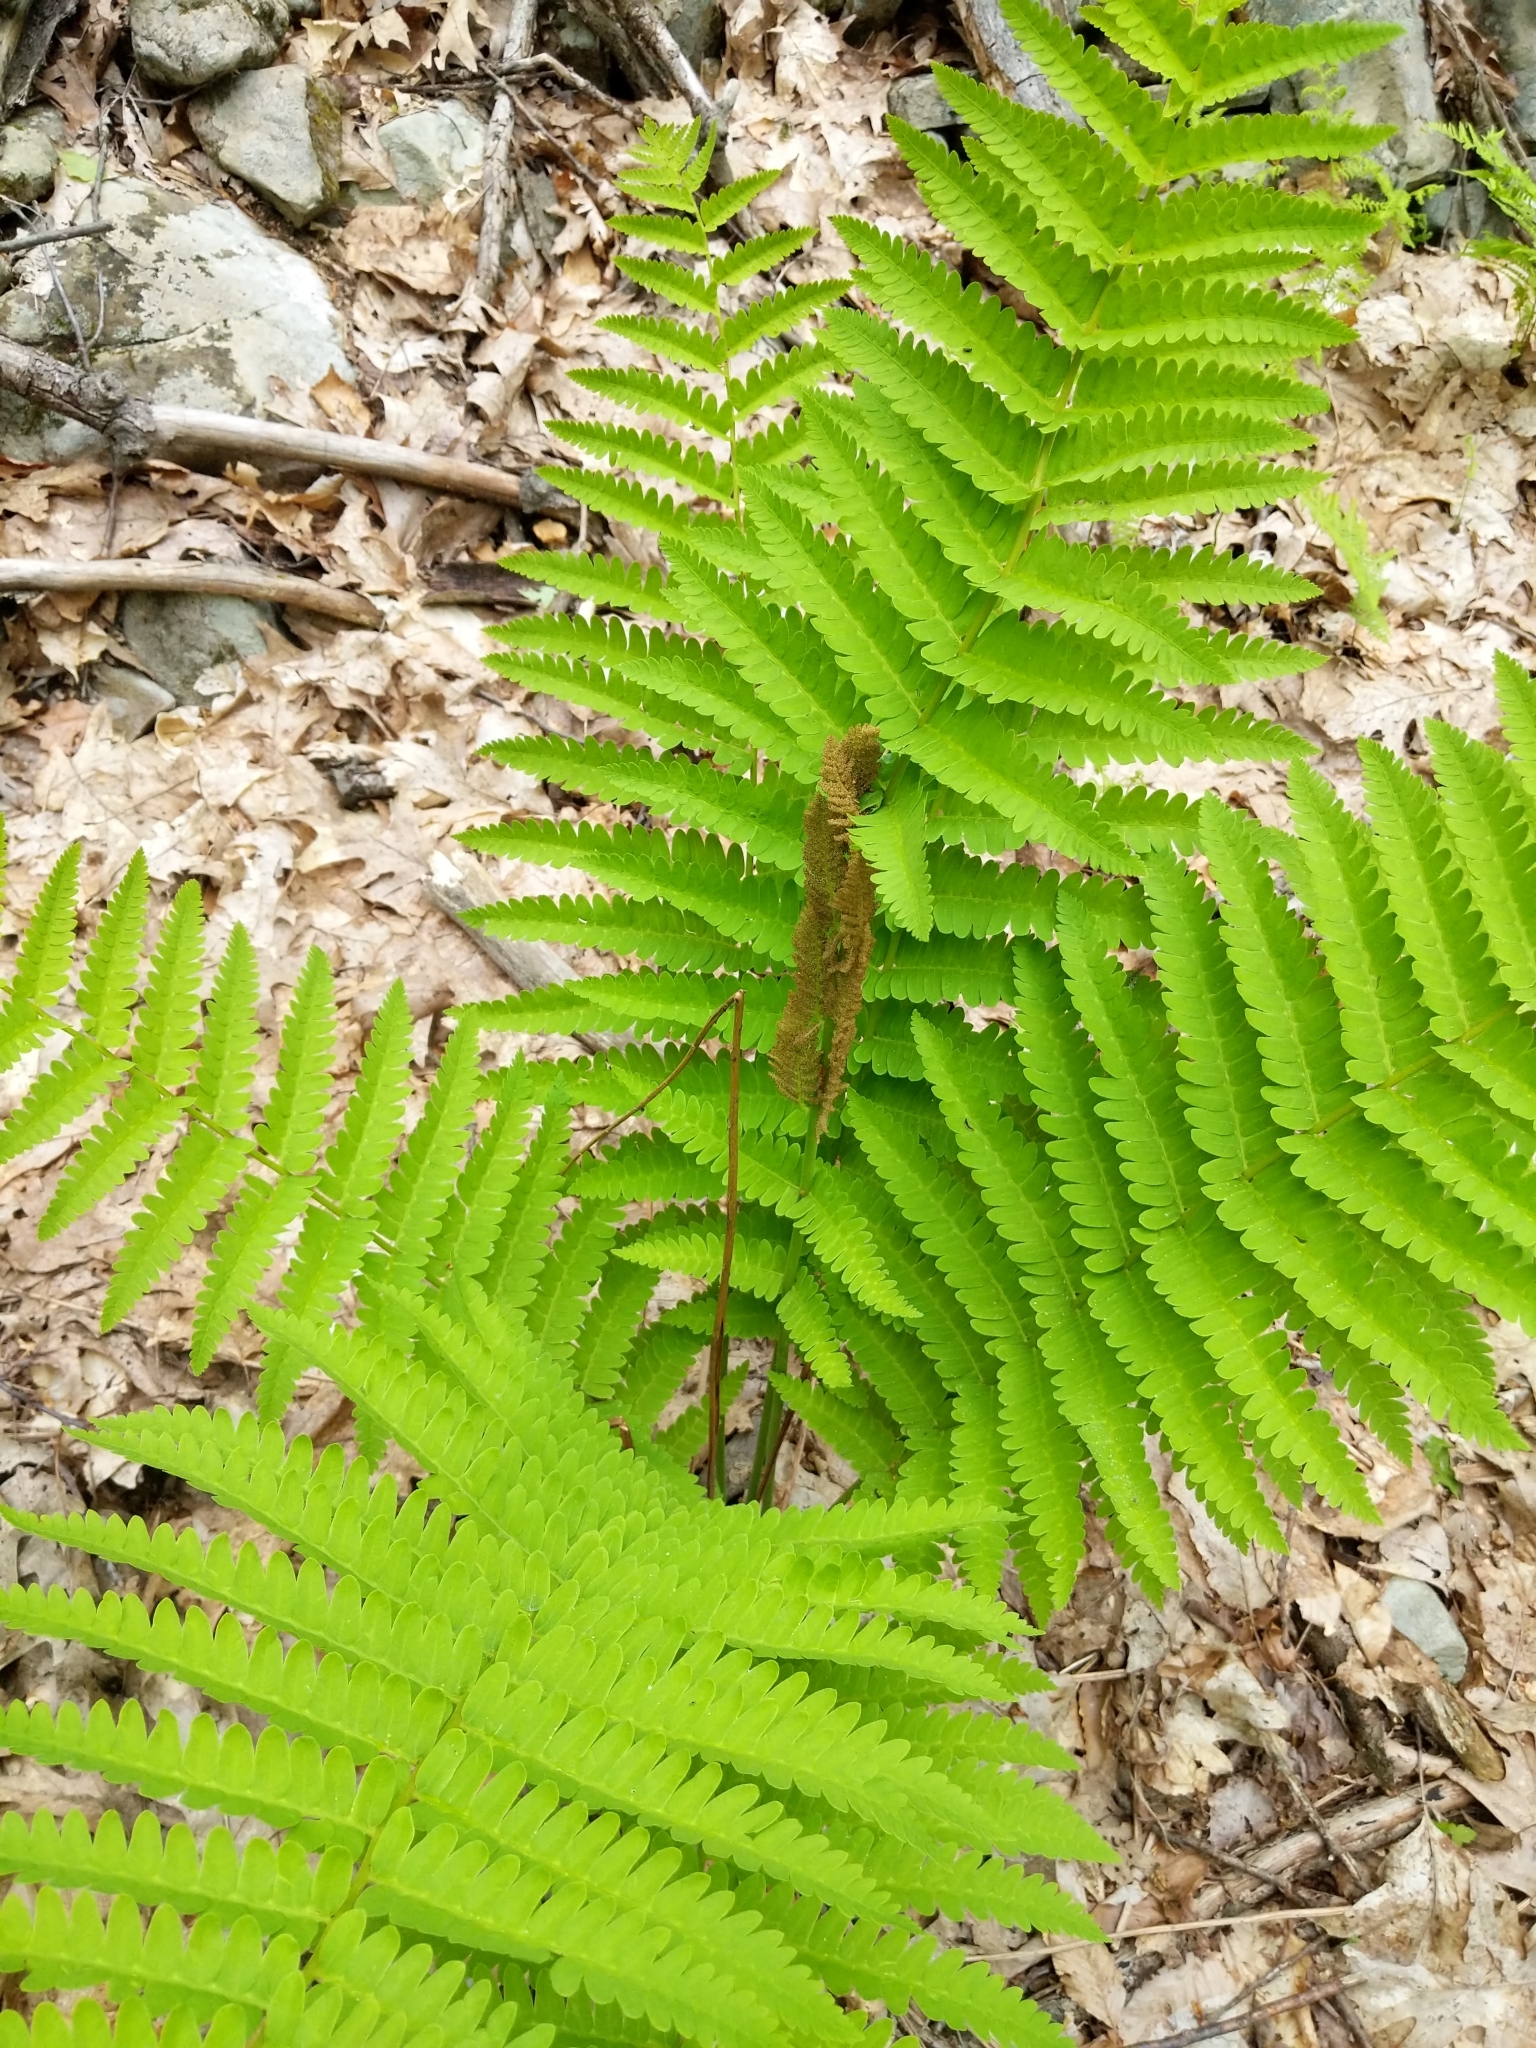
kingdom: Plantae
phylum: Tracheophyta
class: Polypodiopsida
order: Osmundales
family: Osmundaceae
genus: Osmundastrum
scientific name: Osmundastrum cinnamomeum
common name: Cinnamon fern
